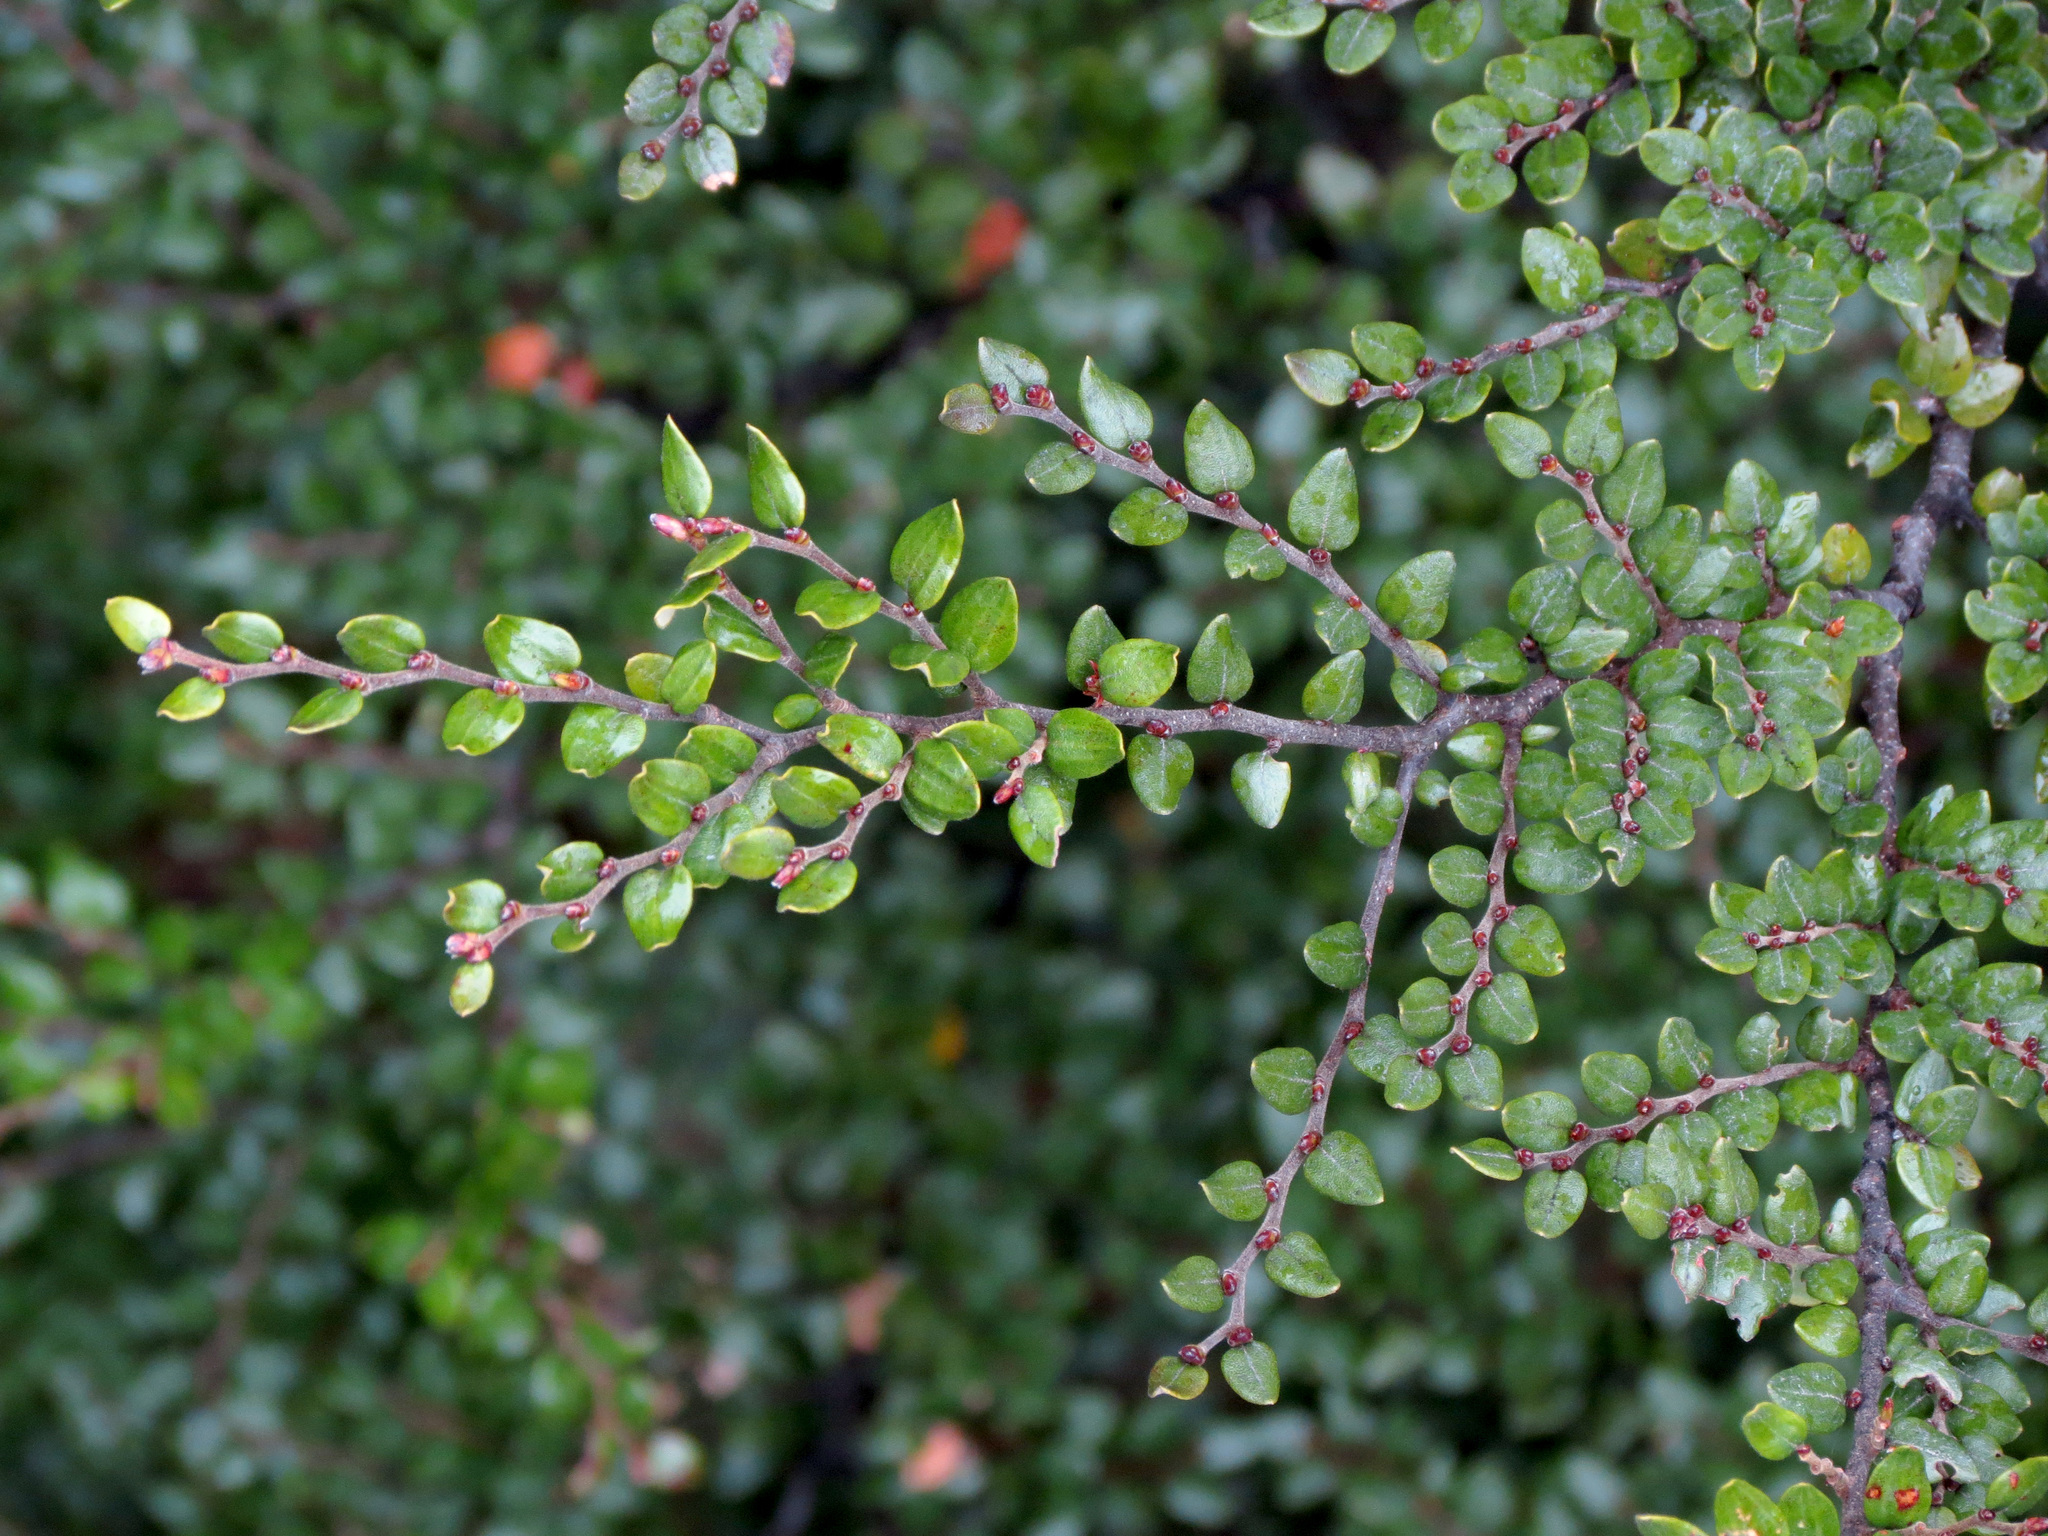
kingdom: Plantae
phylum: Tracheophyta
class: Magnoliopsida
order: Fagales
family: Nothofagaceae
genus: Nothofagus
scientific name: Nothofagus cliffortioides
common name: Mountain beech
